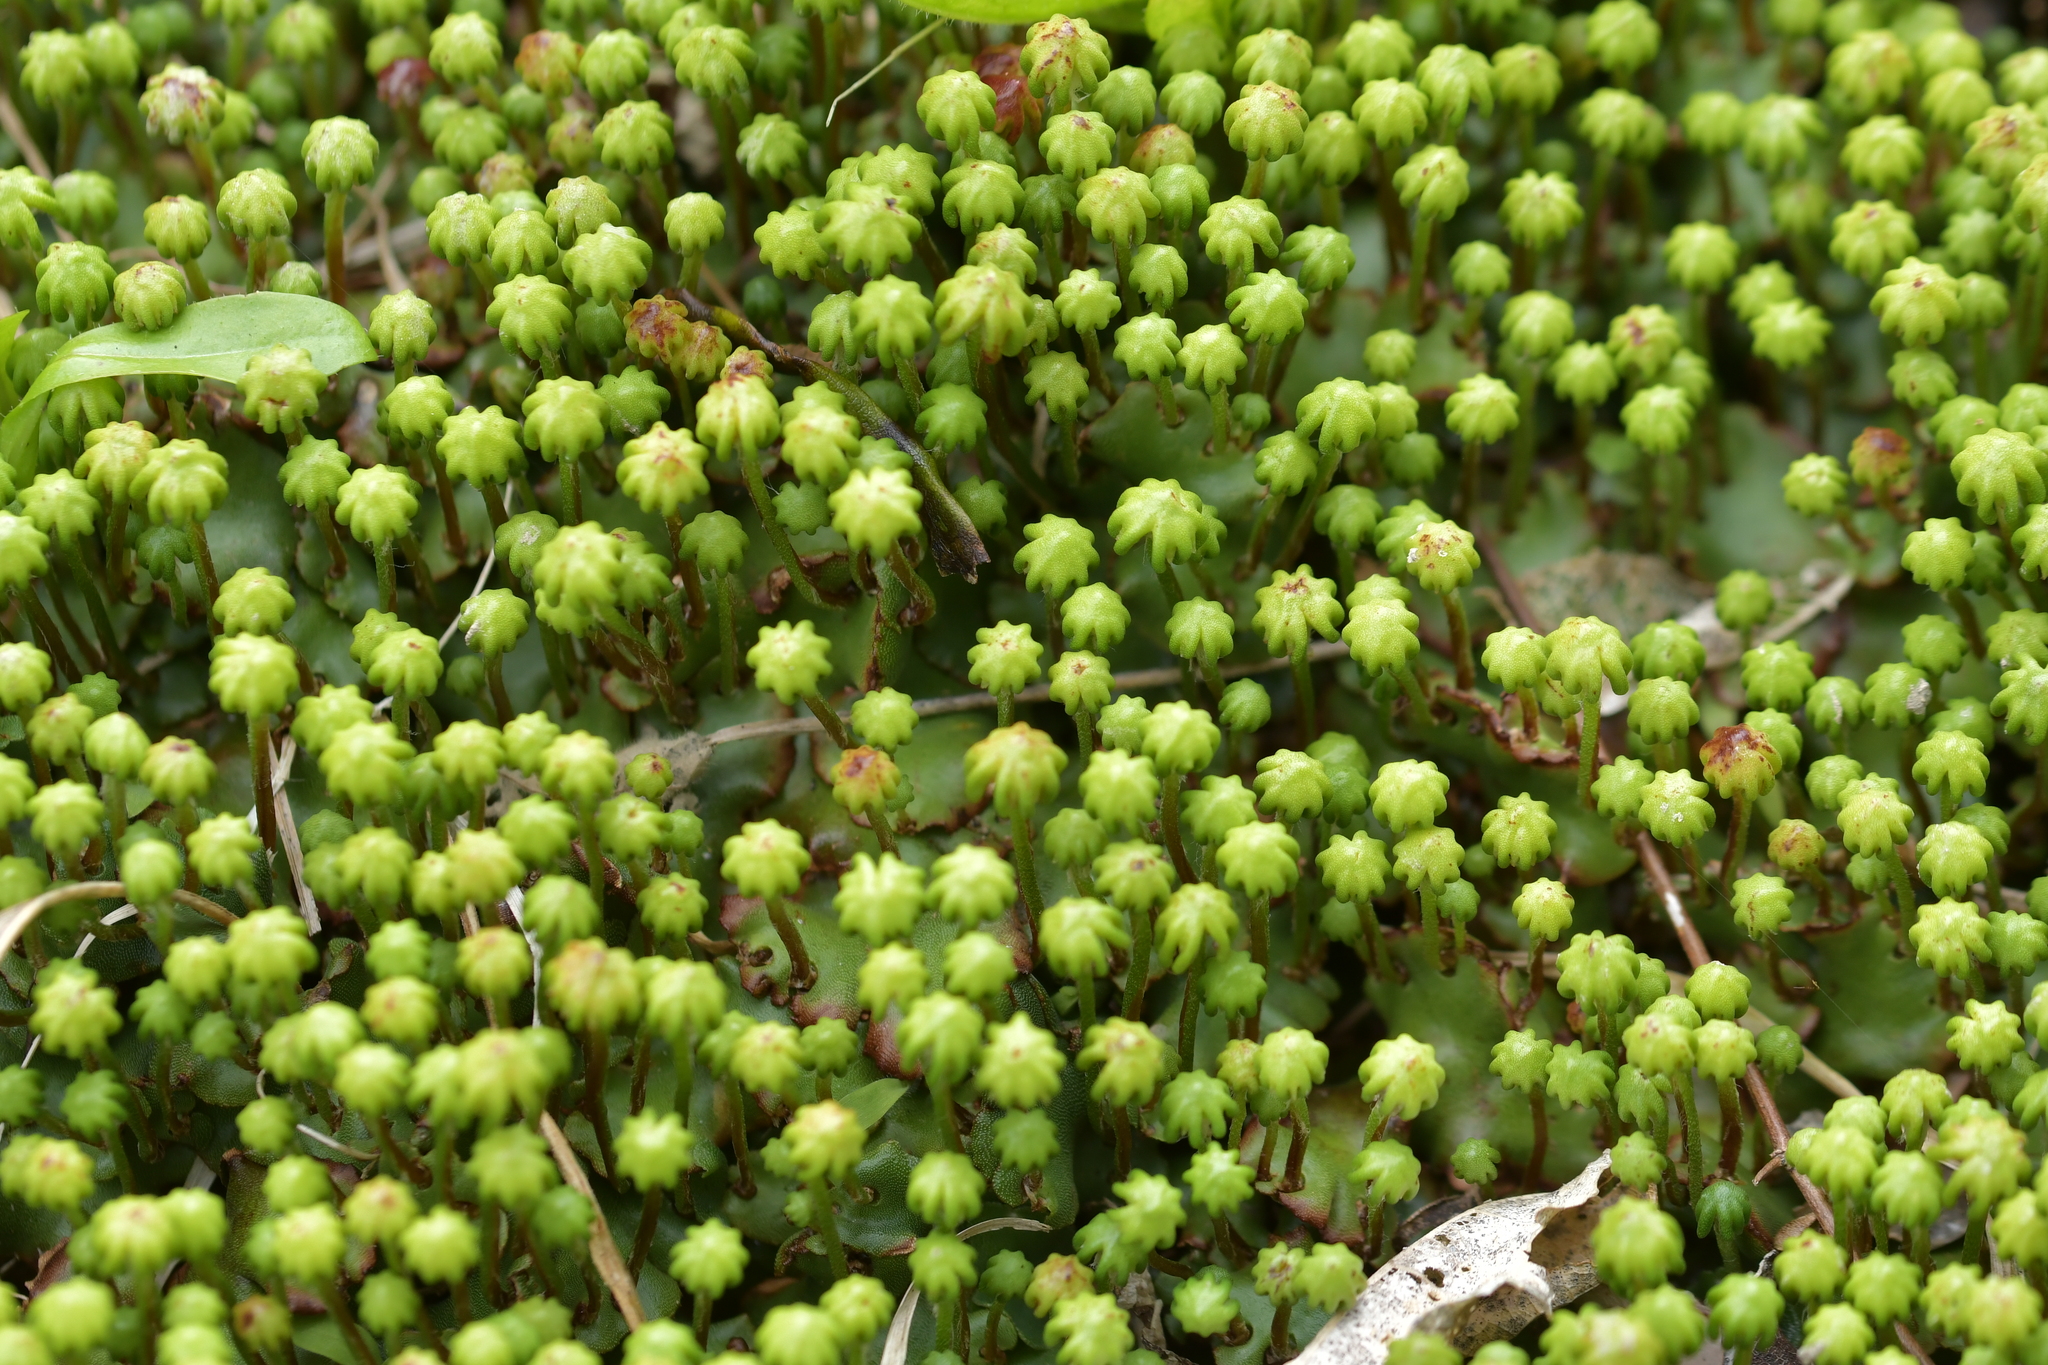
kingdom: Plantae
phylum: Marchantiophyta
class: Marchantiopsida
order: Marchantiales
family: Marchantiaceae
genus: Marchantia
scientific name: Marchantia berteroana
